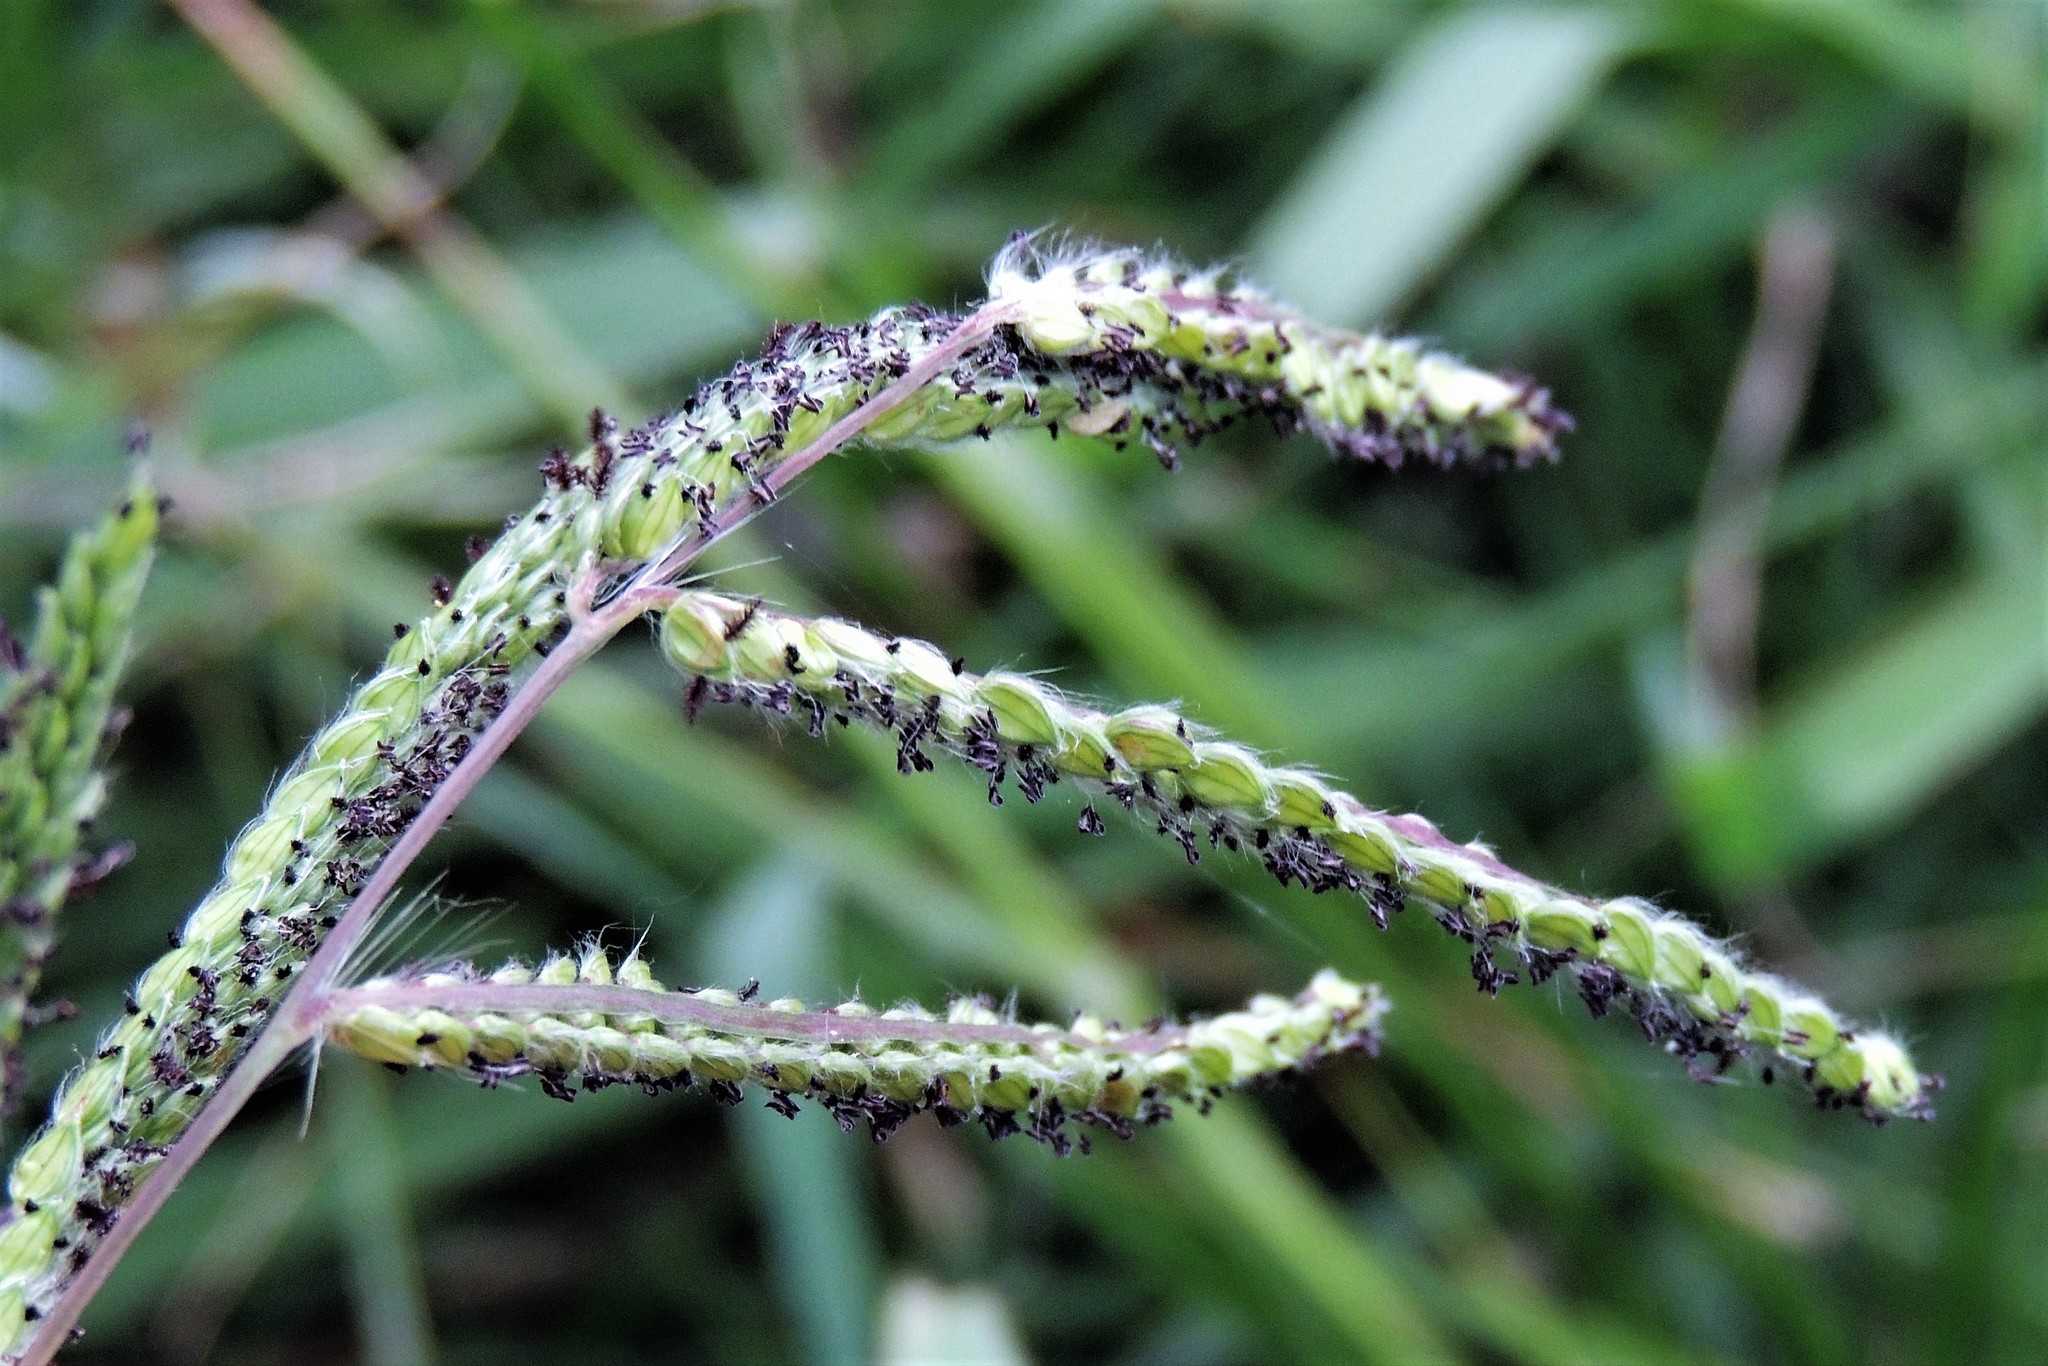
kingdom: Plantae
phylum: Tracheophyta
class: Liliopsida
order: Poales
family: Poaceae
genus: Paspalum
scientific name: Paspalum dilatatum
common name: Dallisgrass
